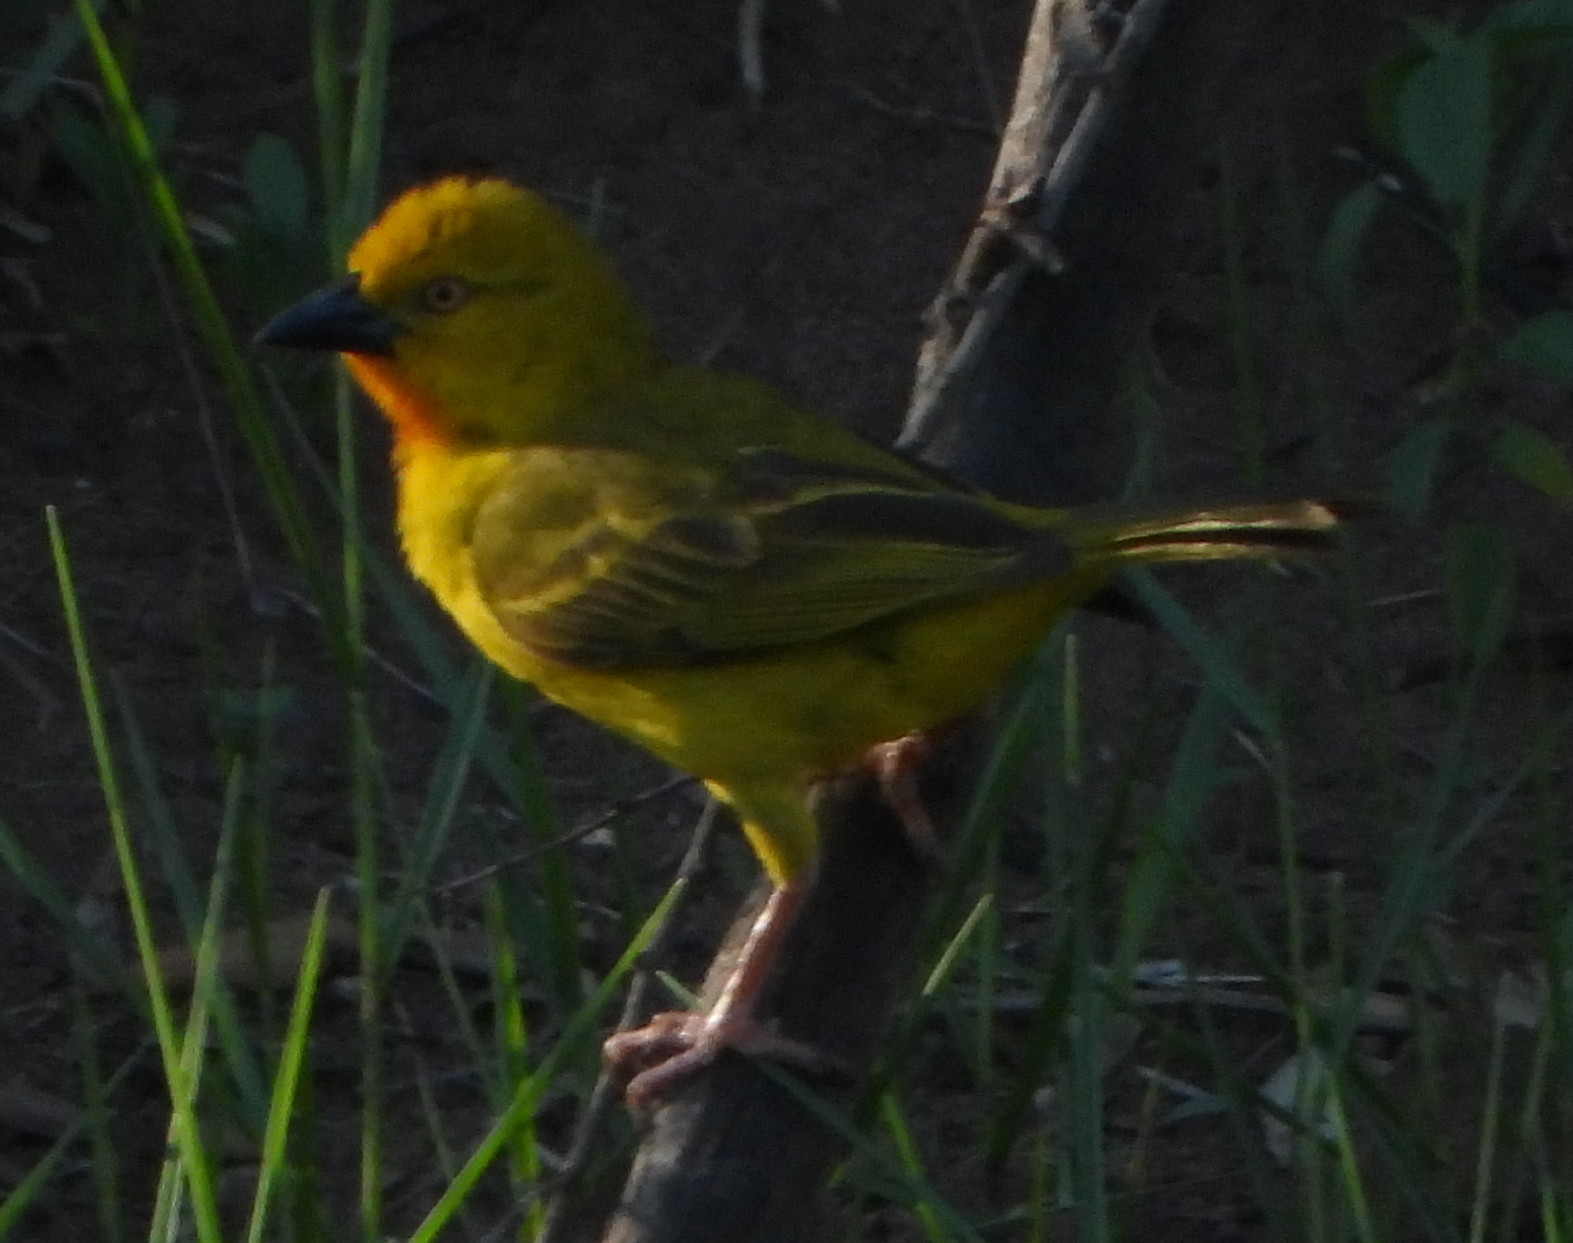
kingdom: Animalia
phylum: Chordata
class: Aves
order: Passeriformes
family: Ploceidae
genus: Ploceus
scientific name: Ploceus xanthops
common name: Holub's golden weaver
